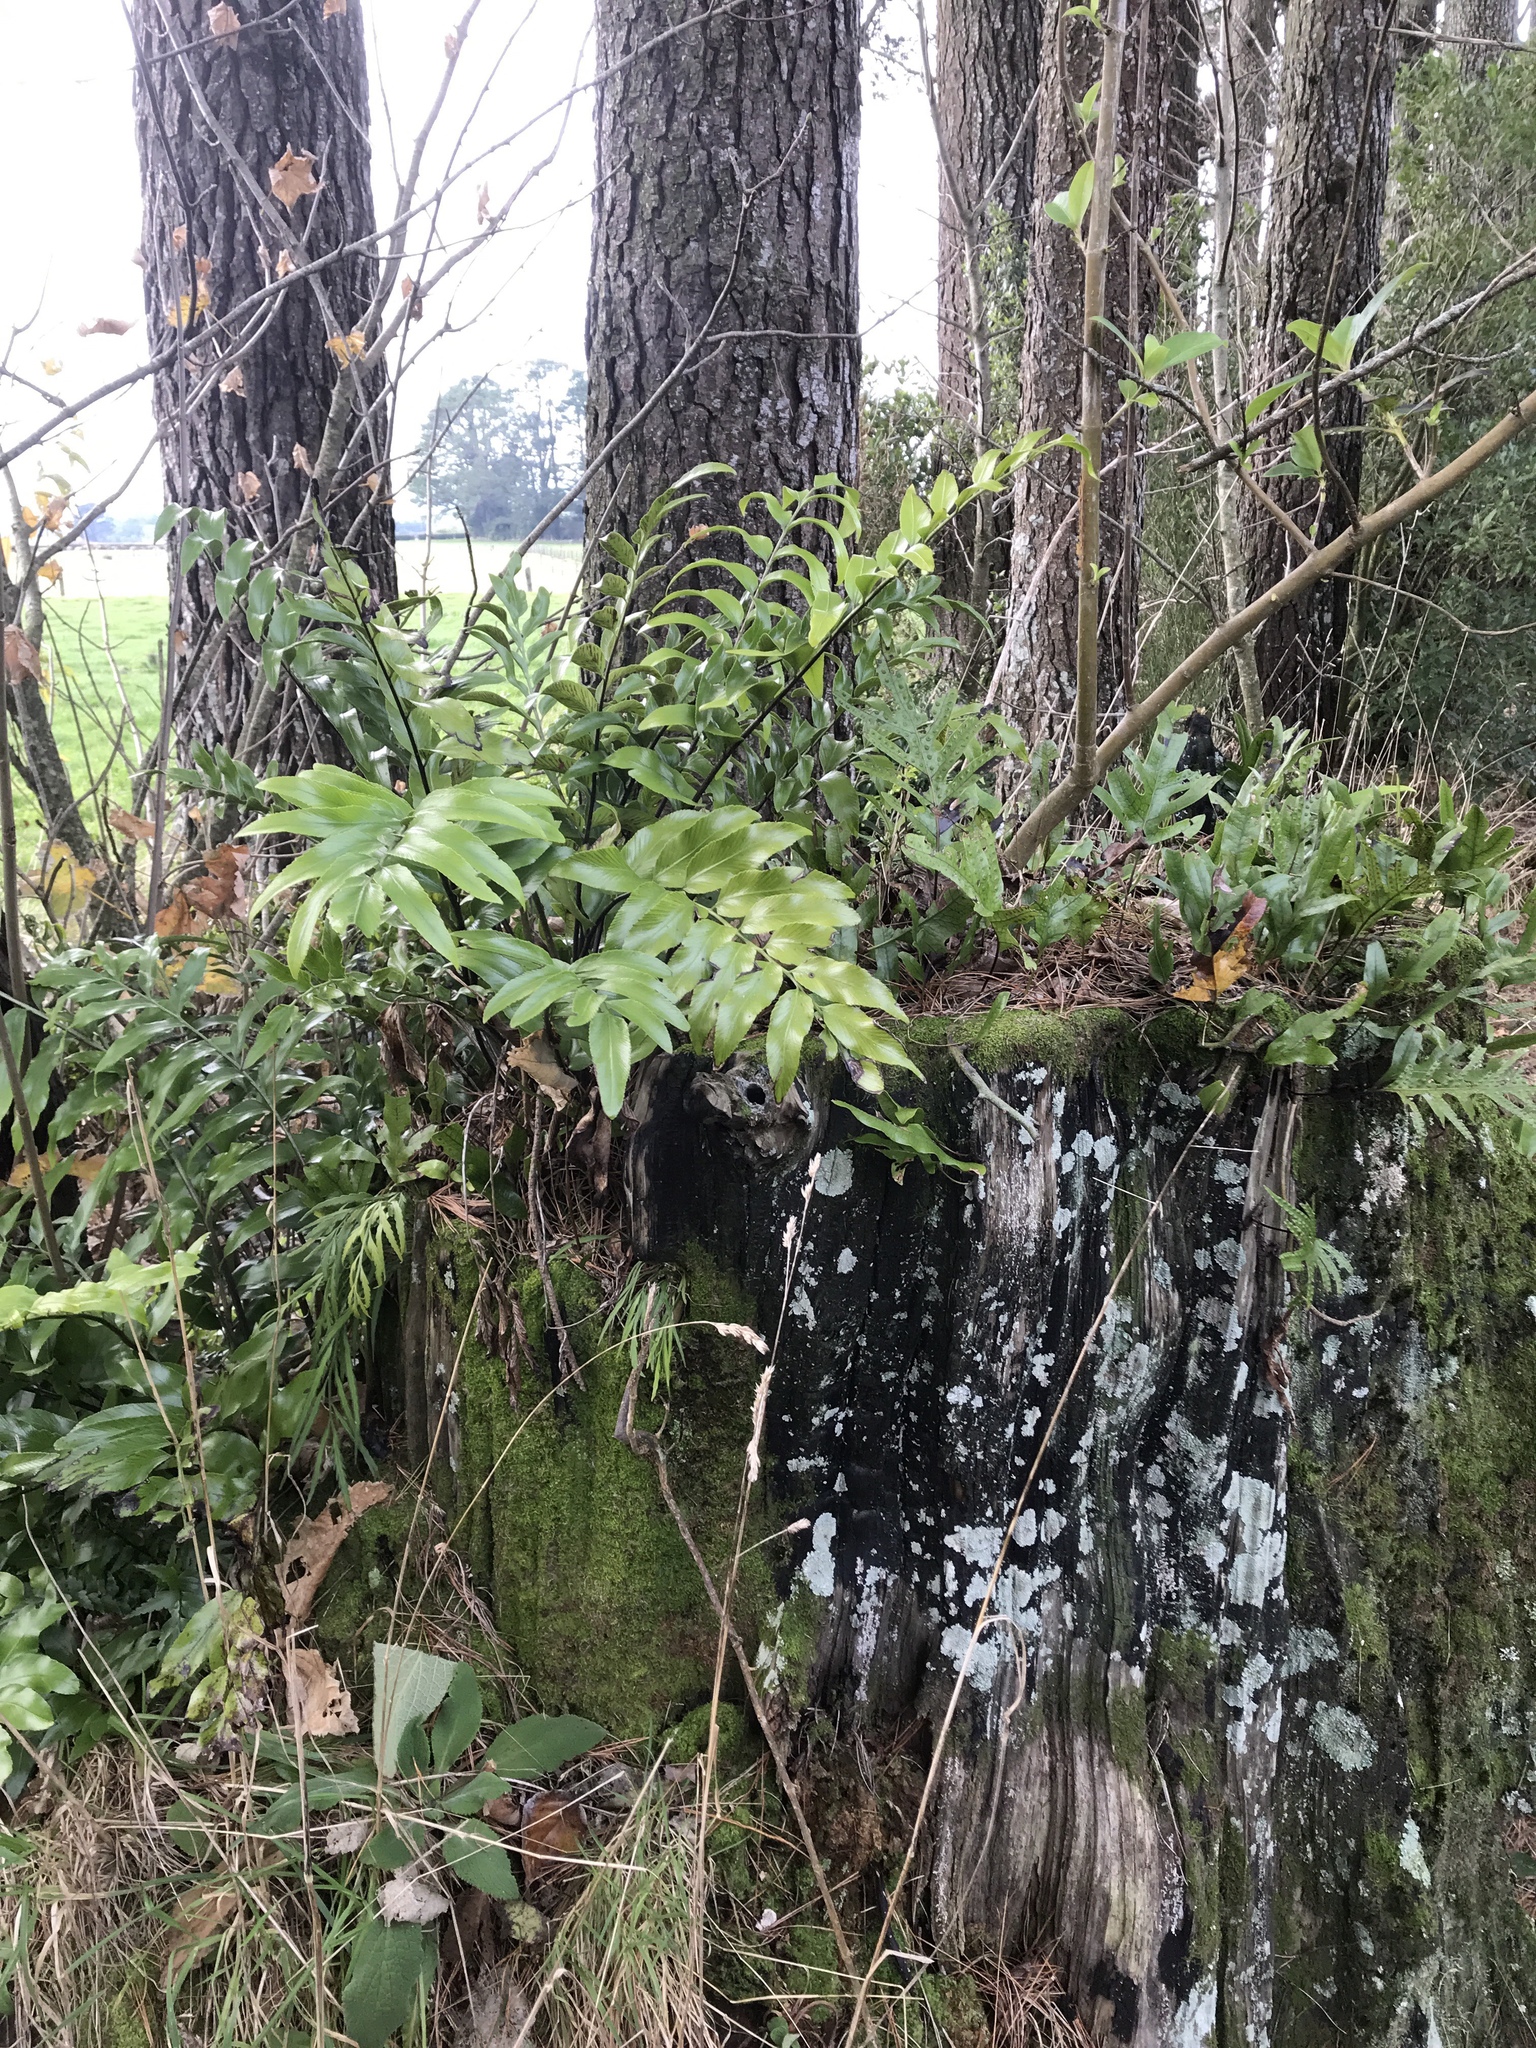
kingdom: Plantae
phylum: Tracheophyta
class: Polypodiopsida
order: Polypodiales
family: Aspleniaceae
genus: Asplenium
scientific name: Asplenium oblongifolium
